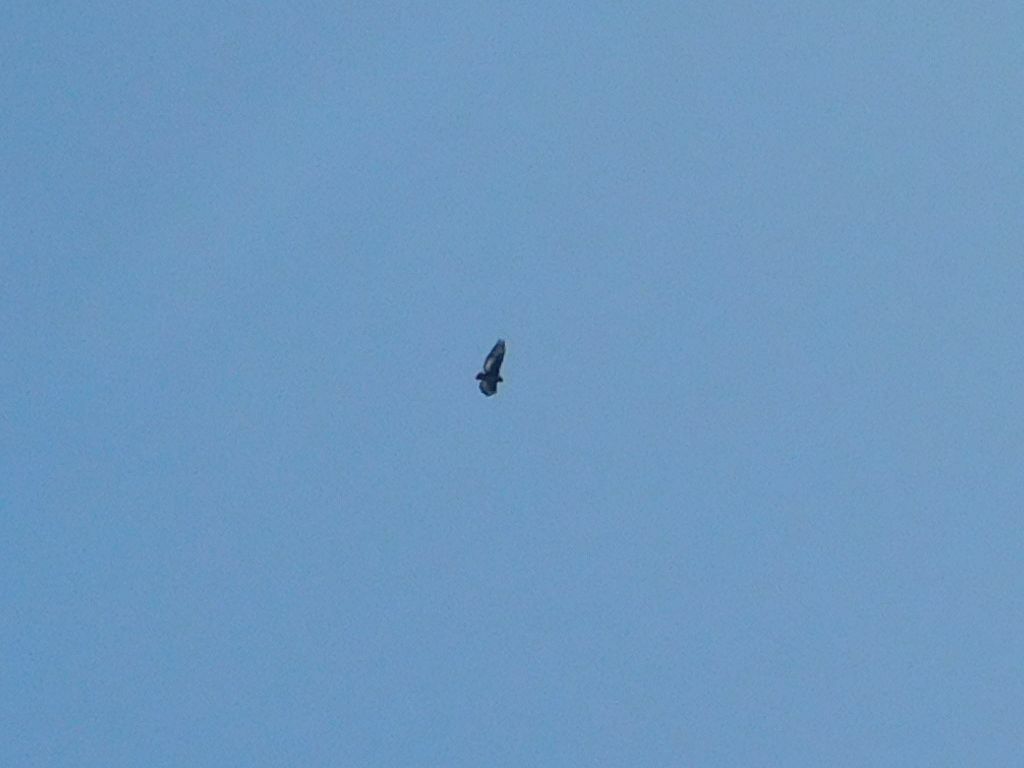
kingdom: Animalia
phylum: Chordata
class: Aves
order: Accipitriformes
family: Accipitridae
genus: Buteo
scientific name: Buteo rufofuscus
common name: Jackal buzzard
